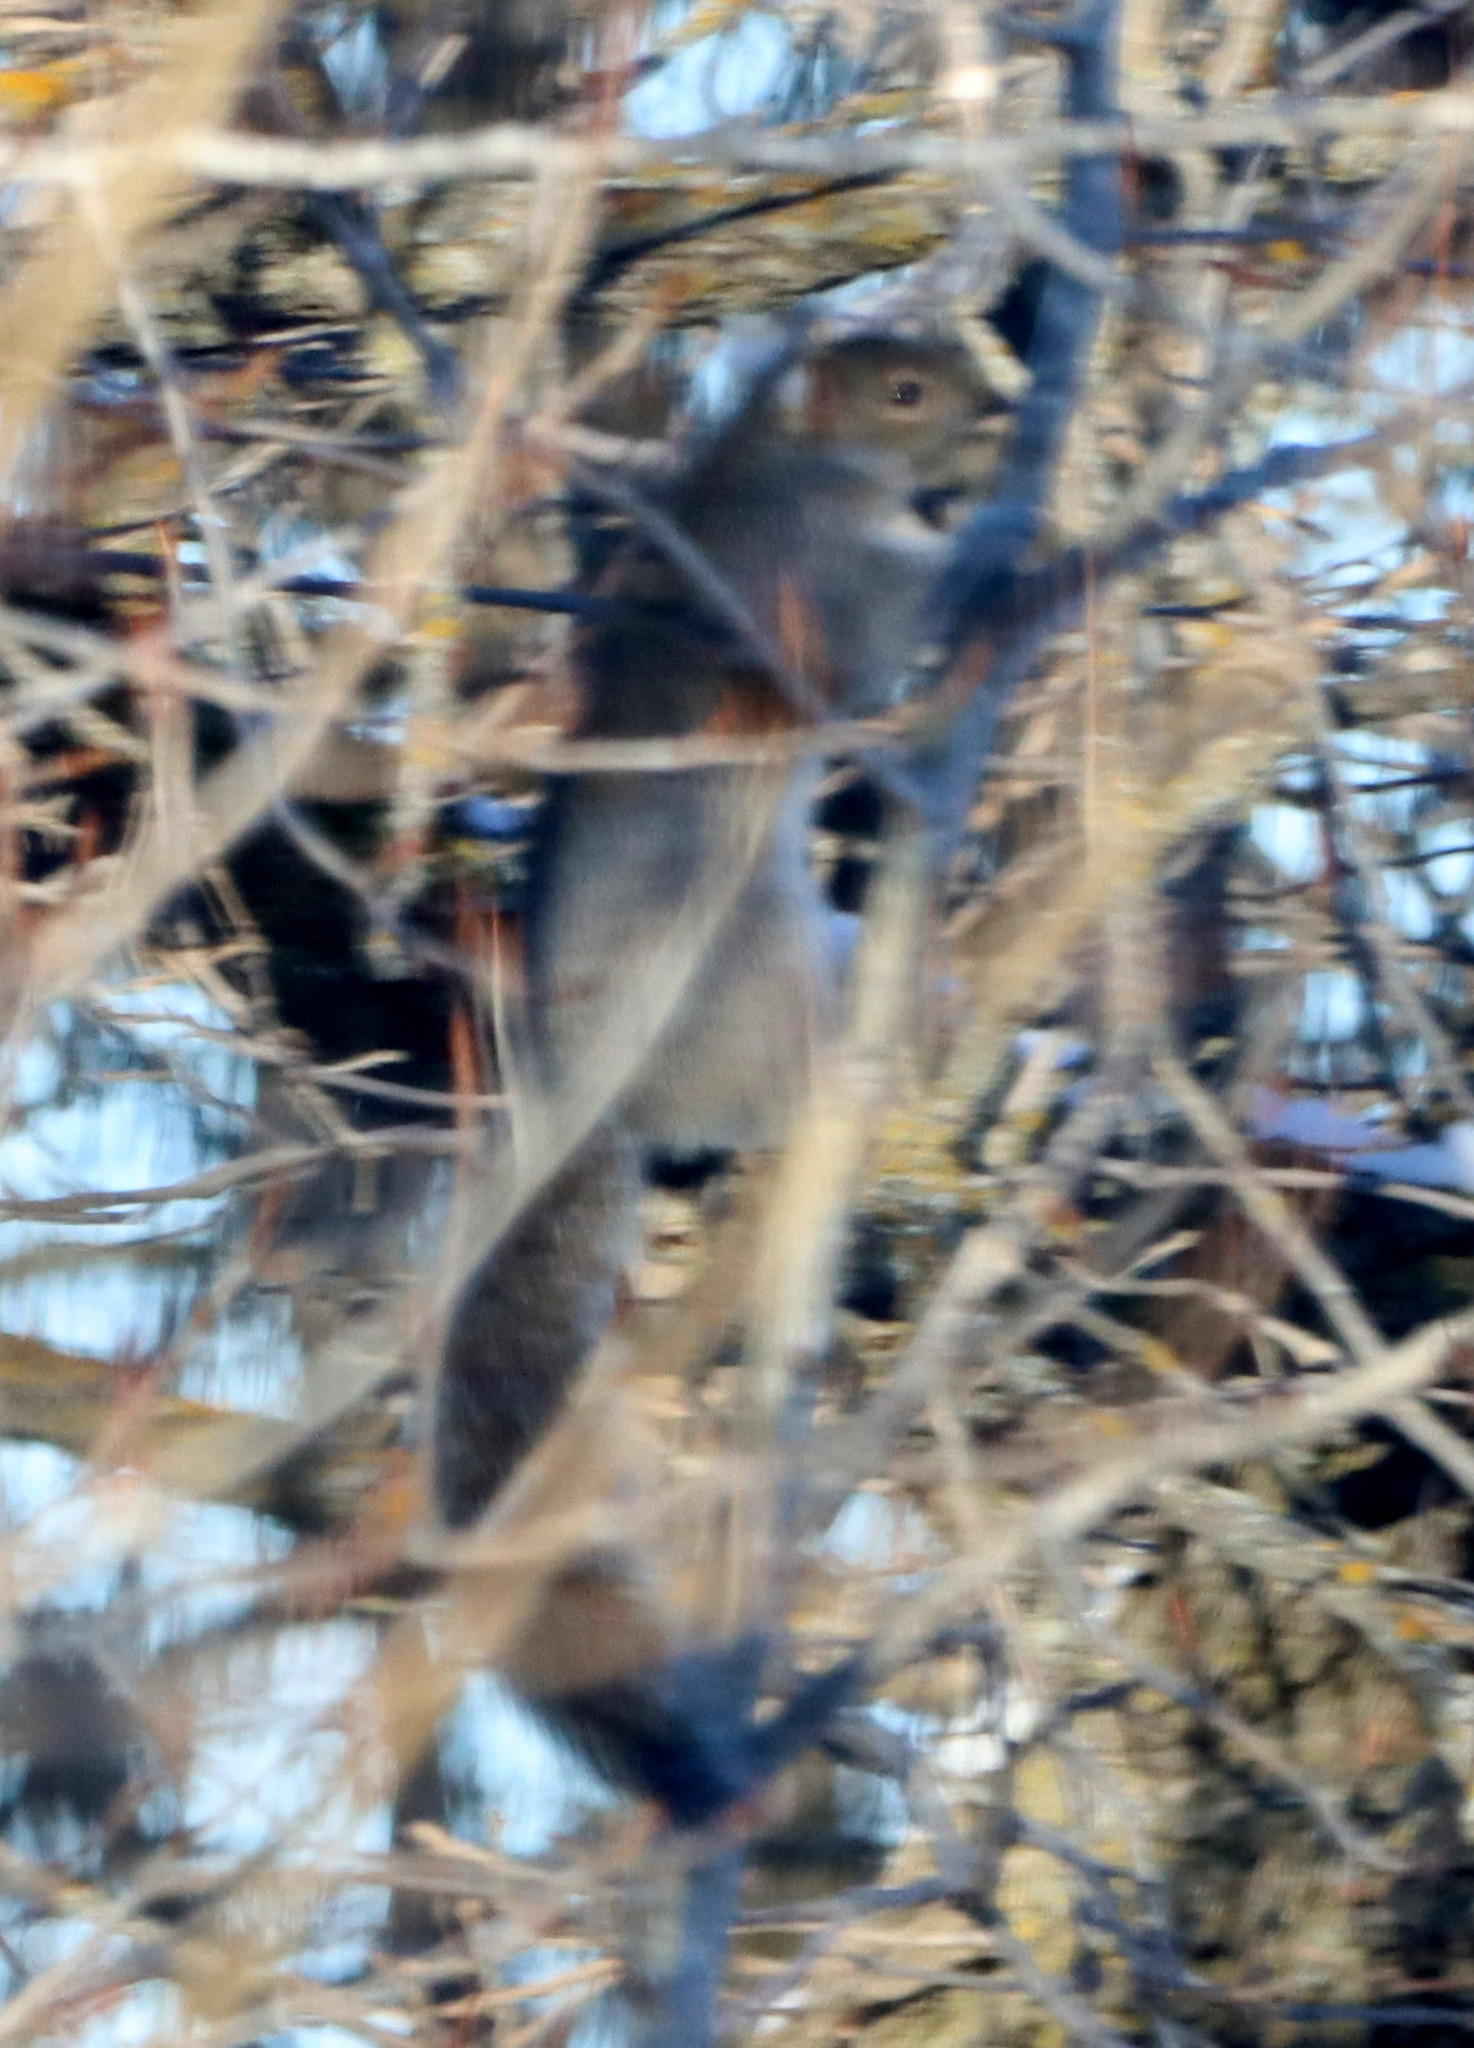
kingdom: Animalia
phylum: Chordata
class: Mammalia
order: Rodentia
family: Sciuridae
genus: Sciurus
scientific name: Sciurus carolinensis
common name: Eastern gray squirrel
